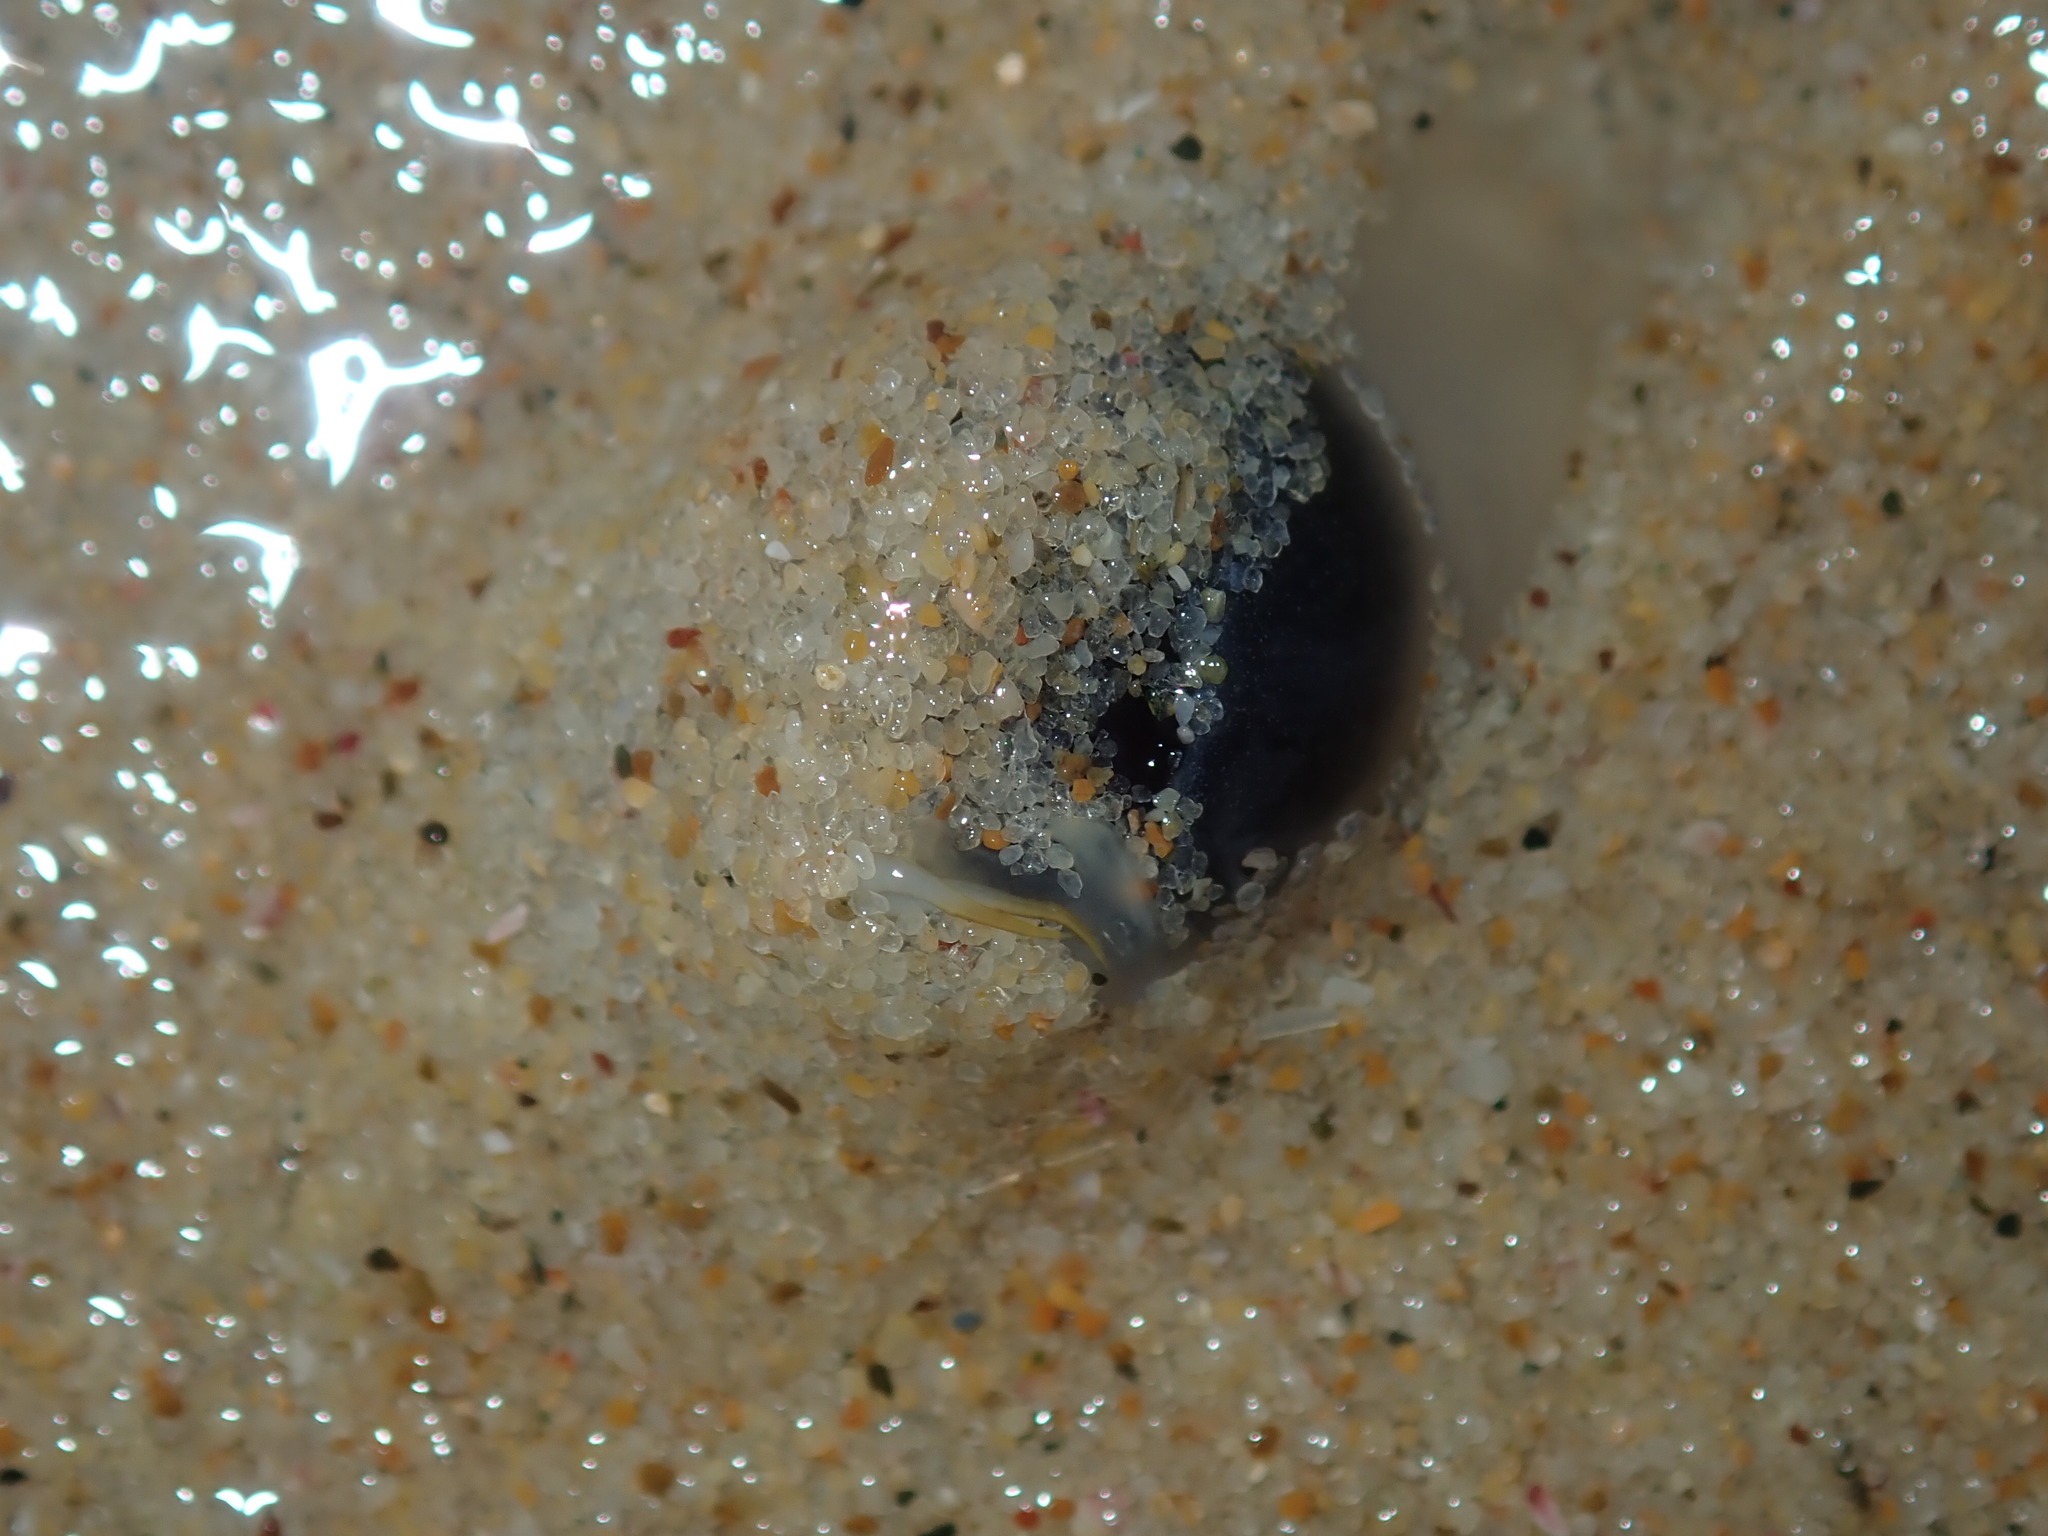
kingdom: Animalia
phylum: Mollusca
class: Gastropoda
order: Littorinimorpha
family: Naticidae
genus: Conuber
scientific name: Conuber incei
